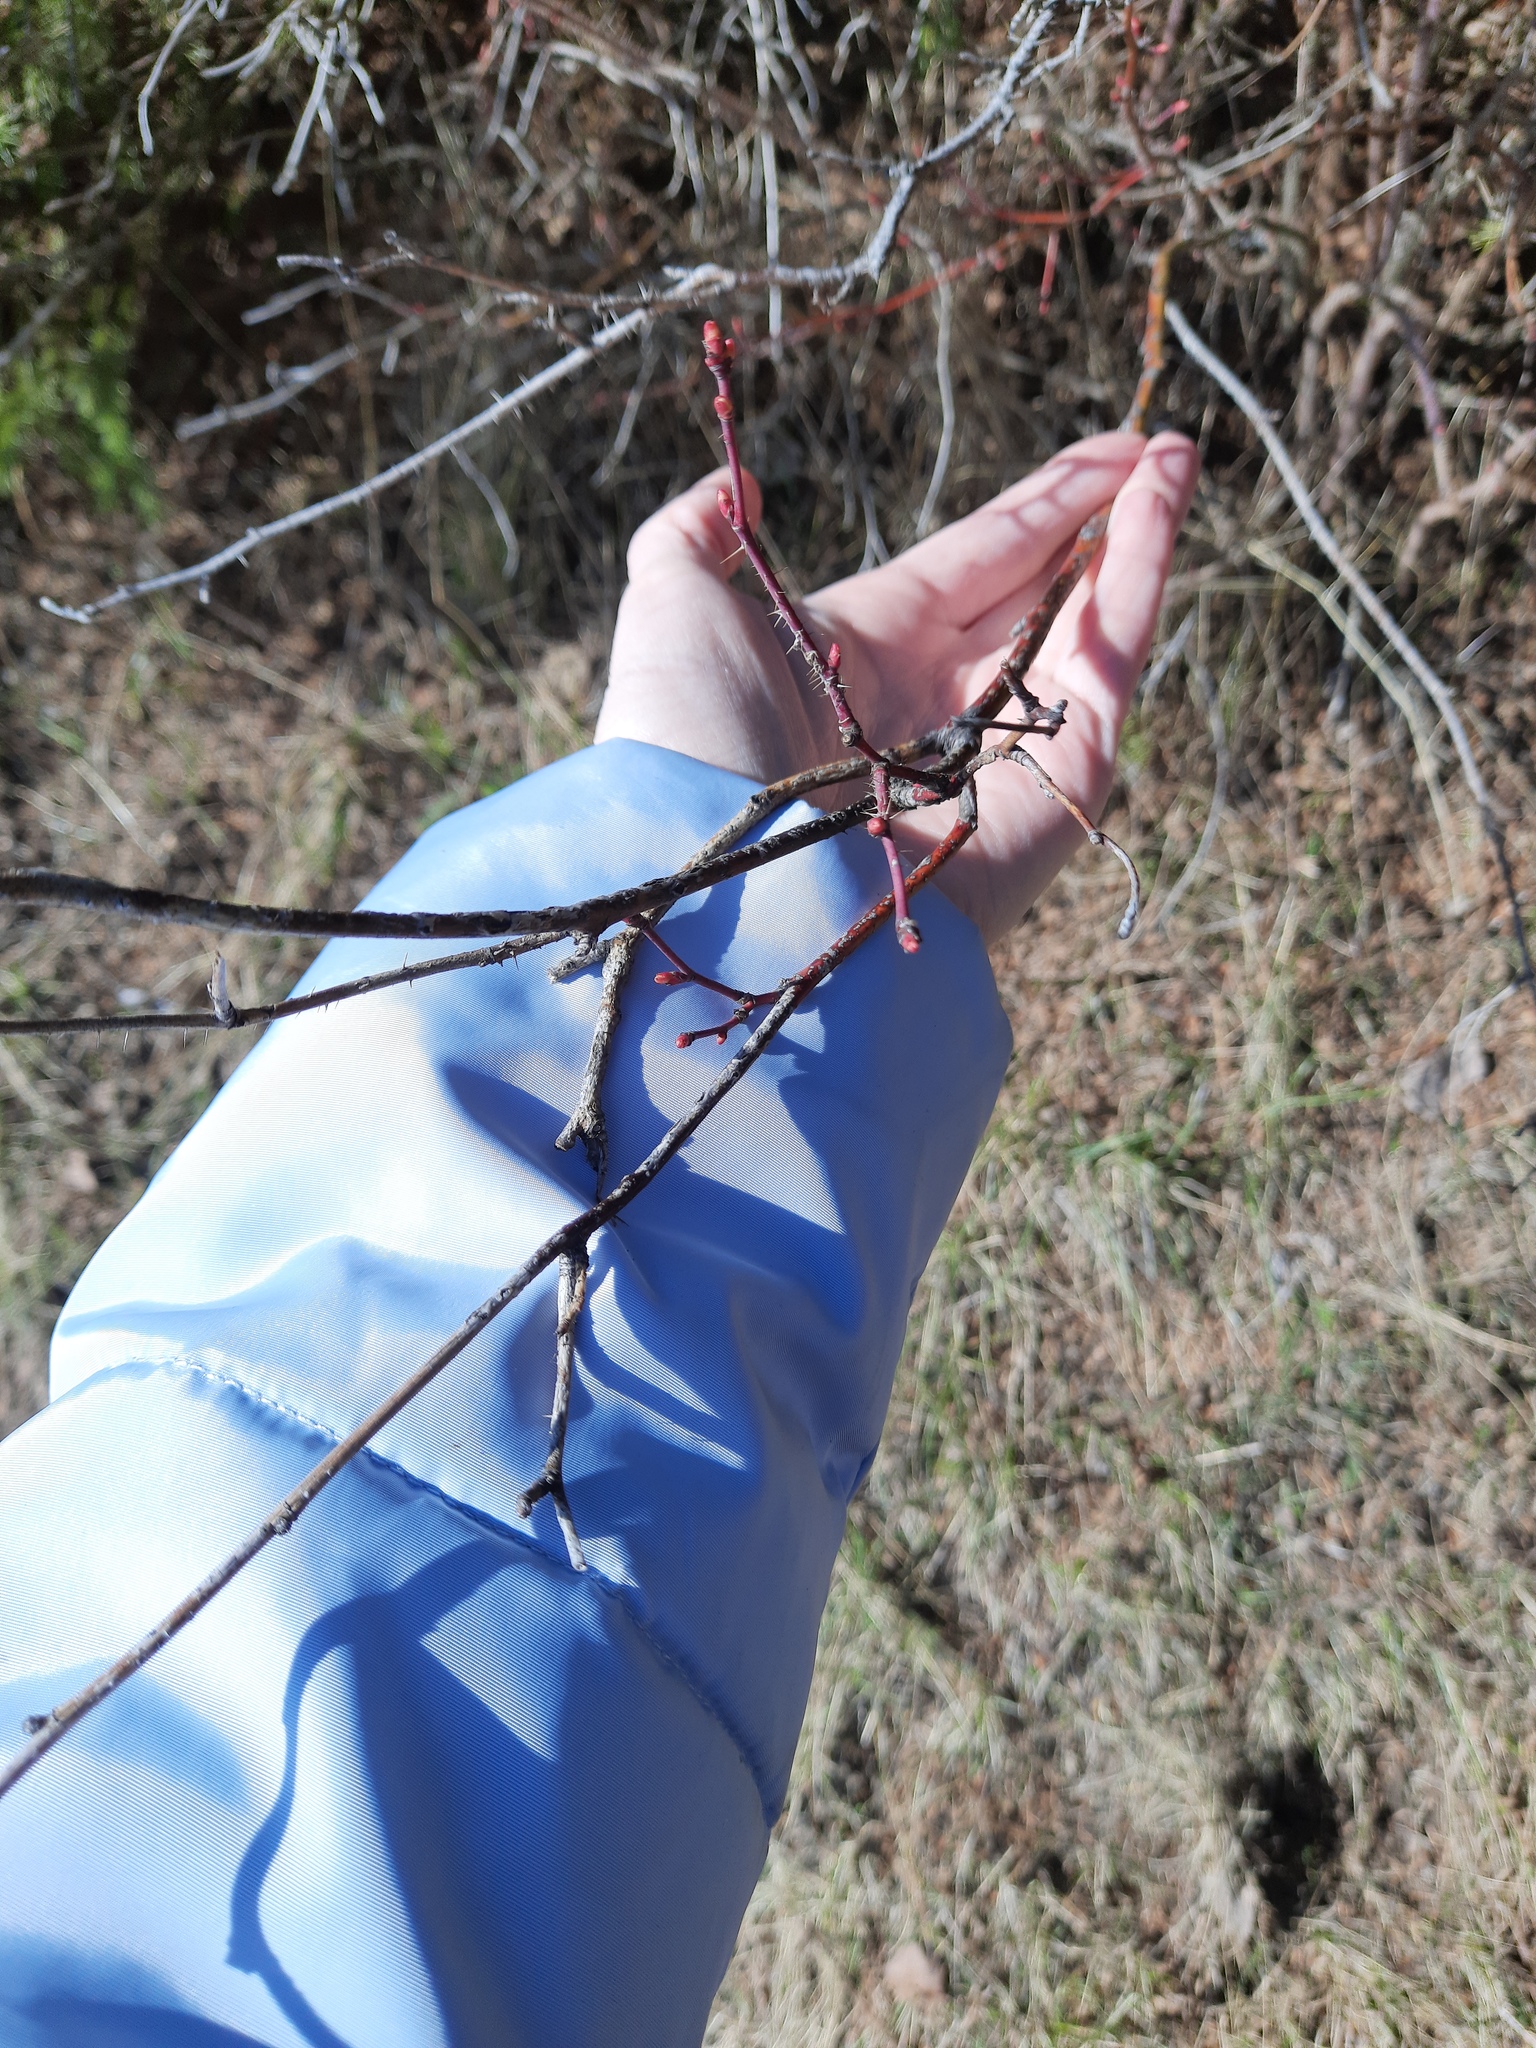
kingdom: Plantae
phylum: Tracheophyta
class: Magnoliopsida
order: Rosales
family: Rosaceae
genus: Rosa
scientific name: Rosa acicularis
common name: Prickly rose
